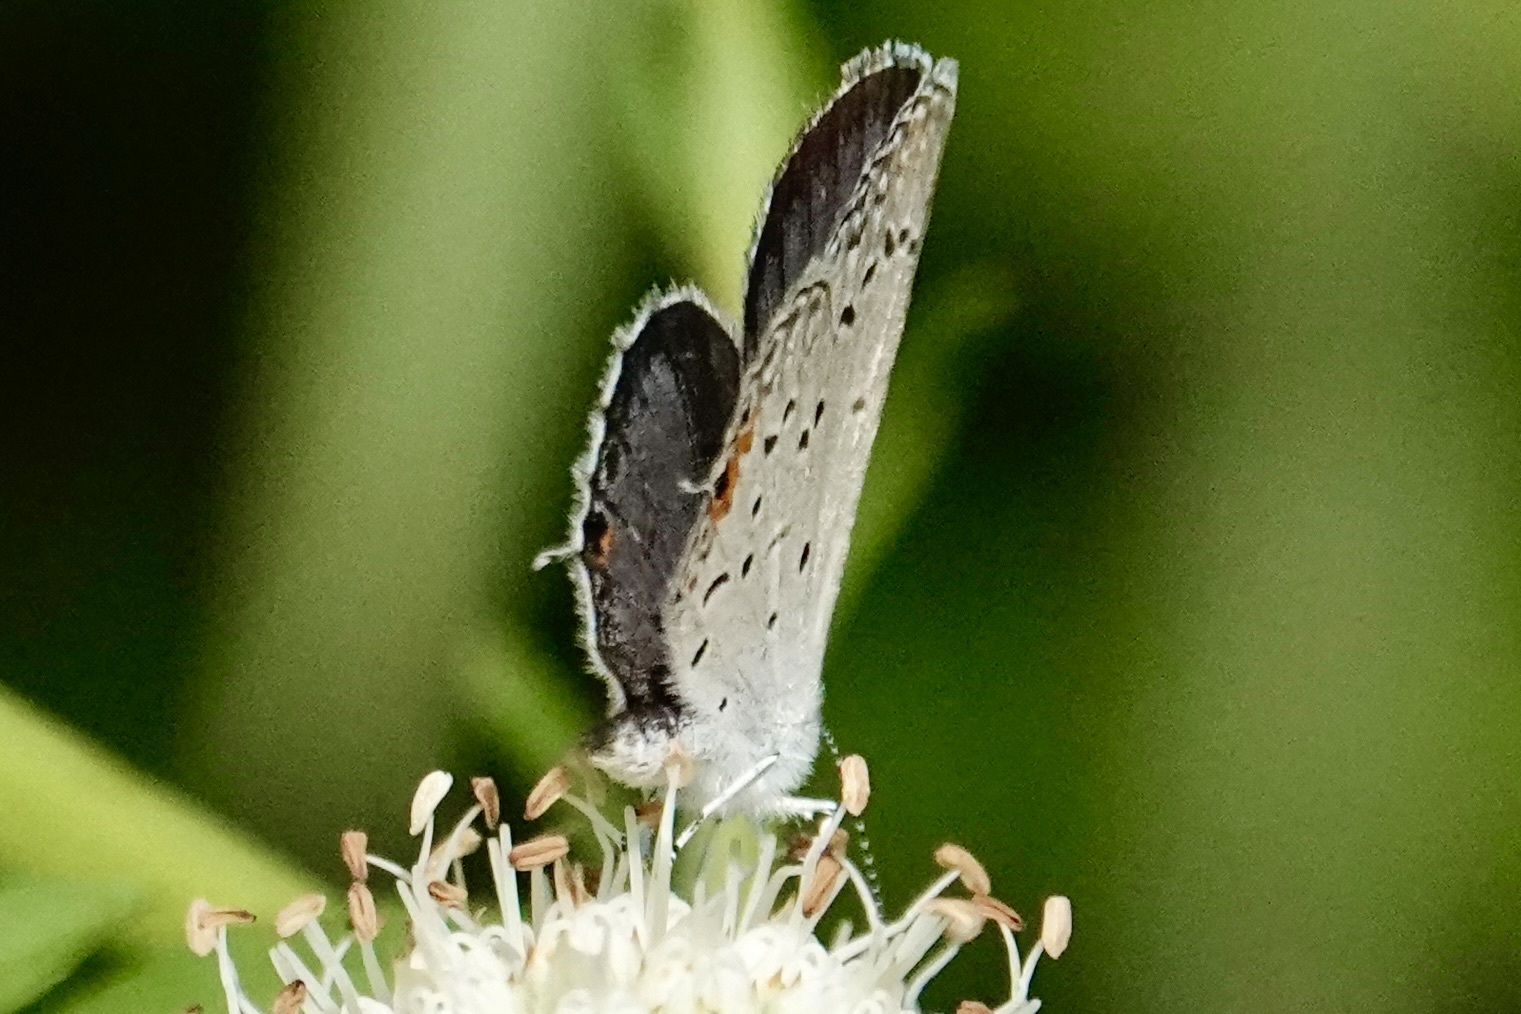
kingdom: Animalia
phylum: Arthropoda
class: Insecta
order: Lepidoptera
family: Lycaenidae
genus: Elkalyce
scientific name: Elkalyce comyntas
